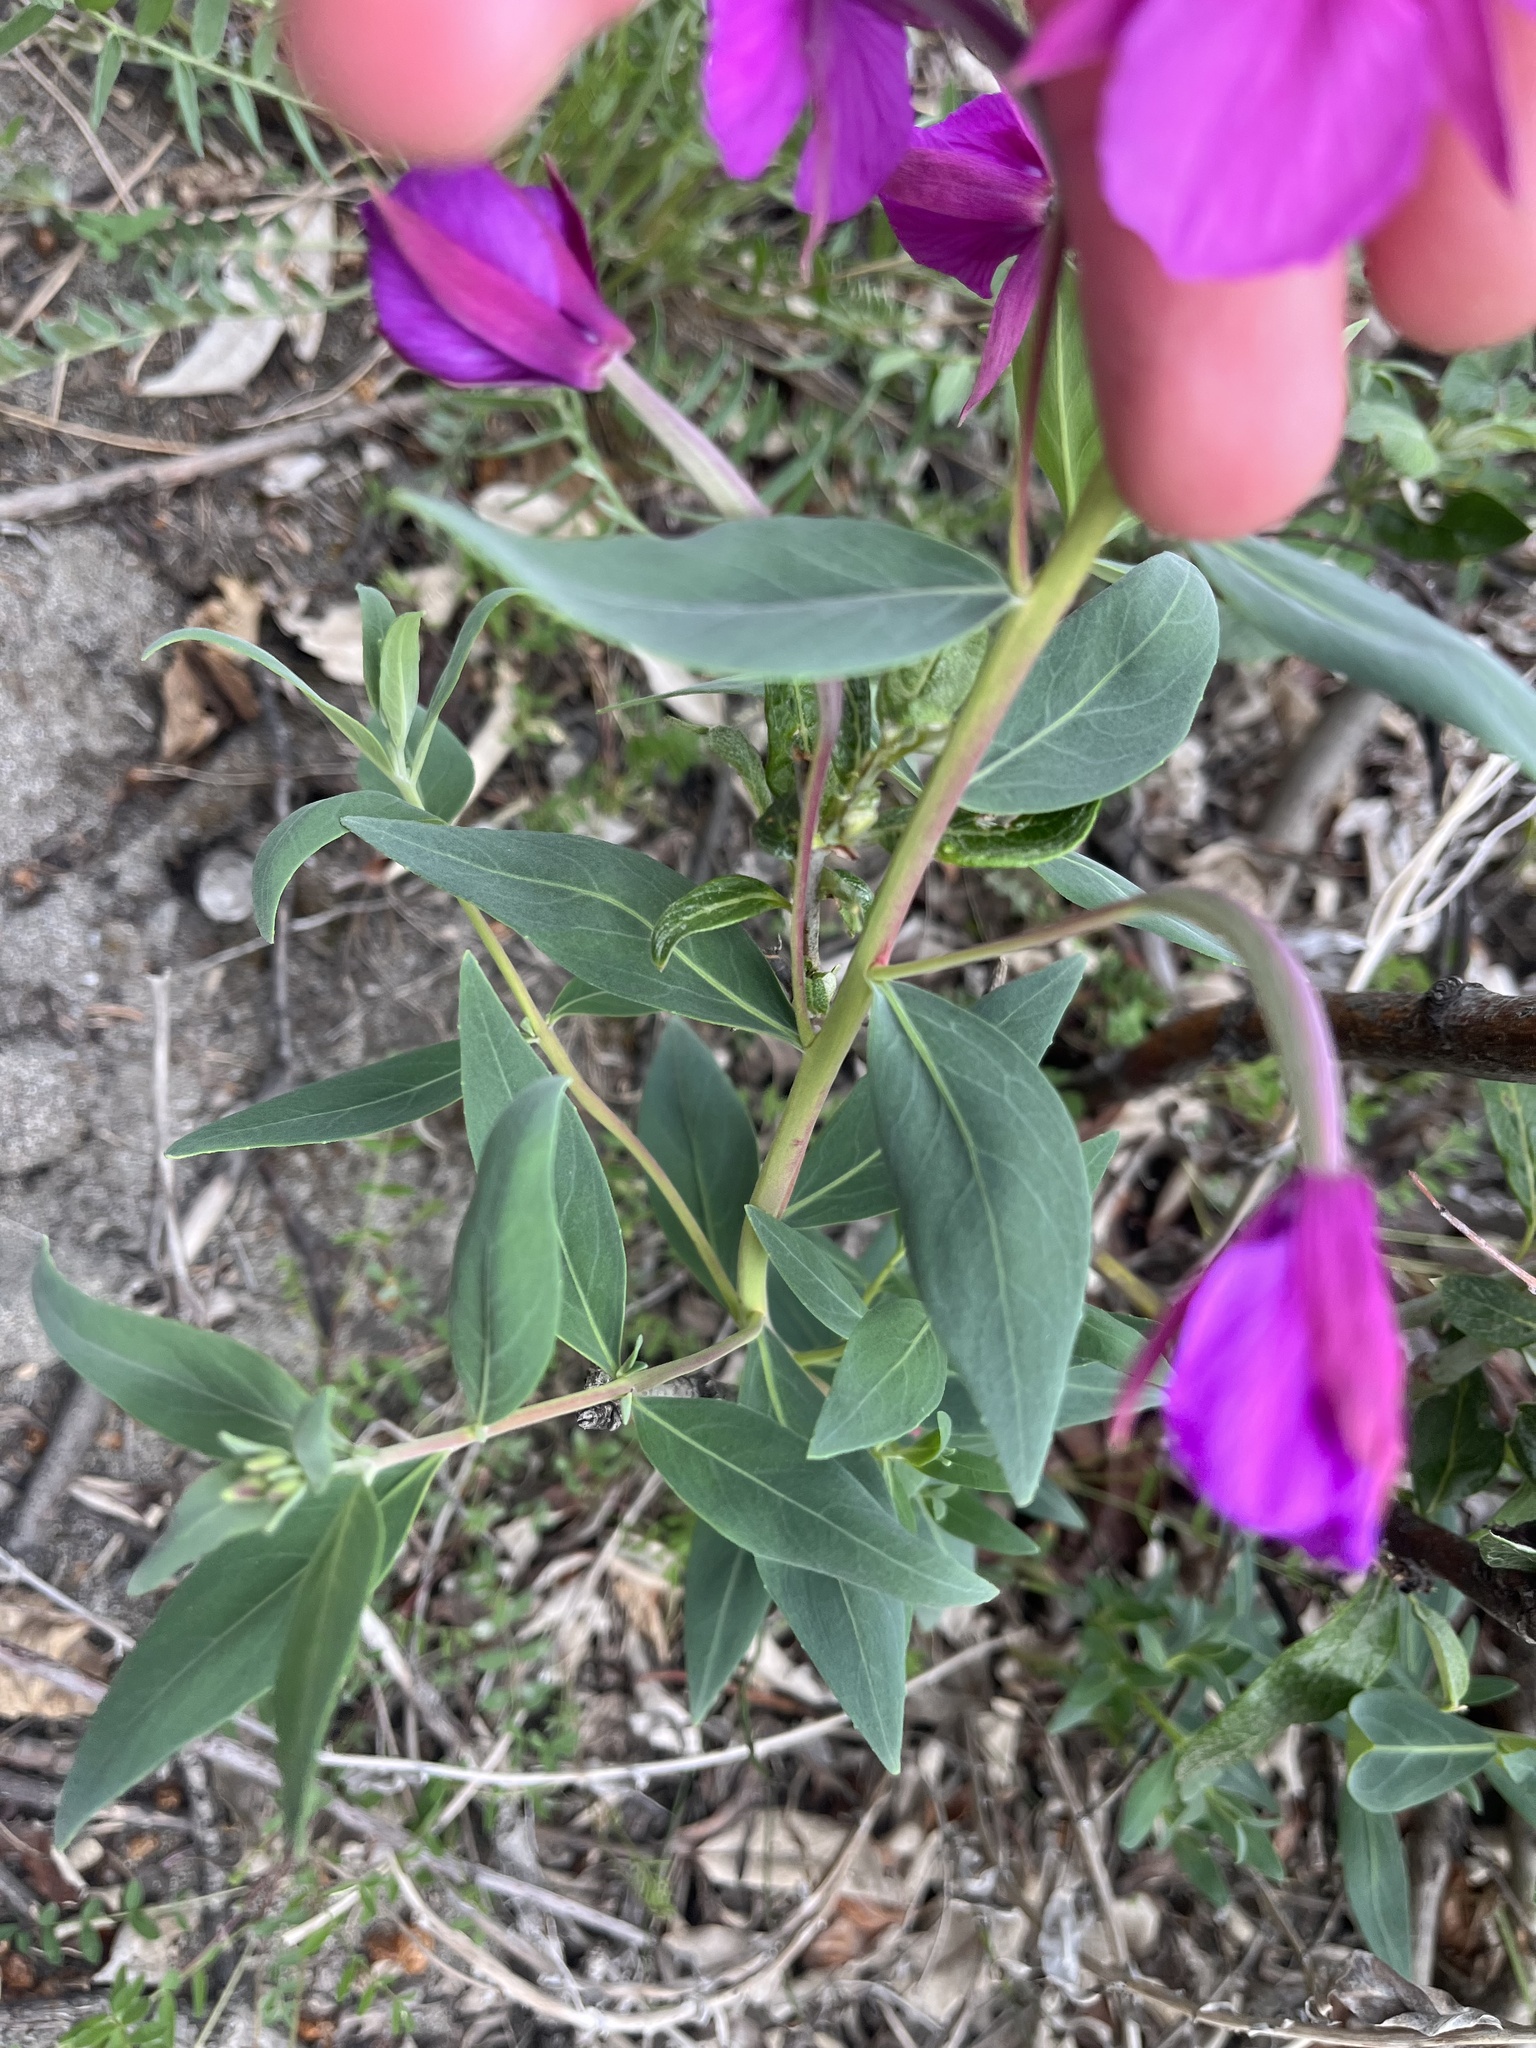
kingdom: Plantae
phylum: Tracheophyta
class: Magnoliopsida
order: Myrtales
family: Onagraceae
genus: Chamaenerion
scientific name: Chamaenerion latifolium
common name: Dwarf fireweed
